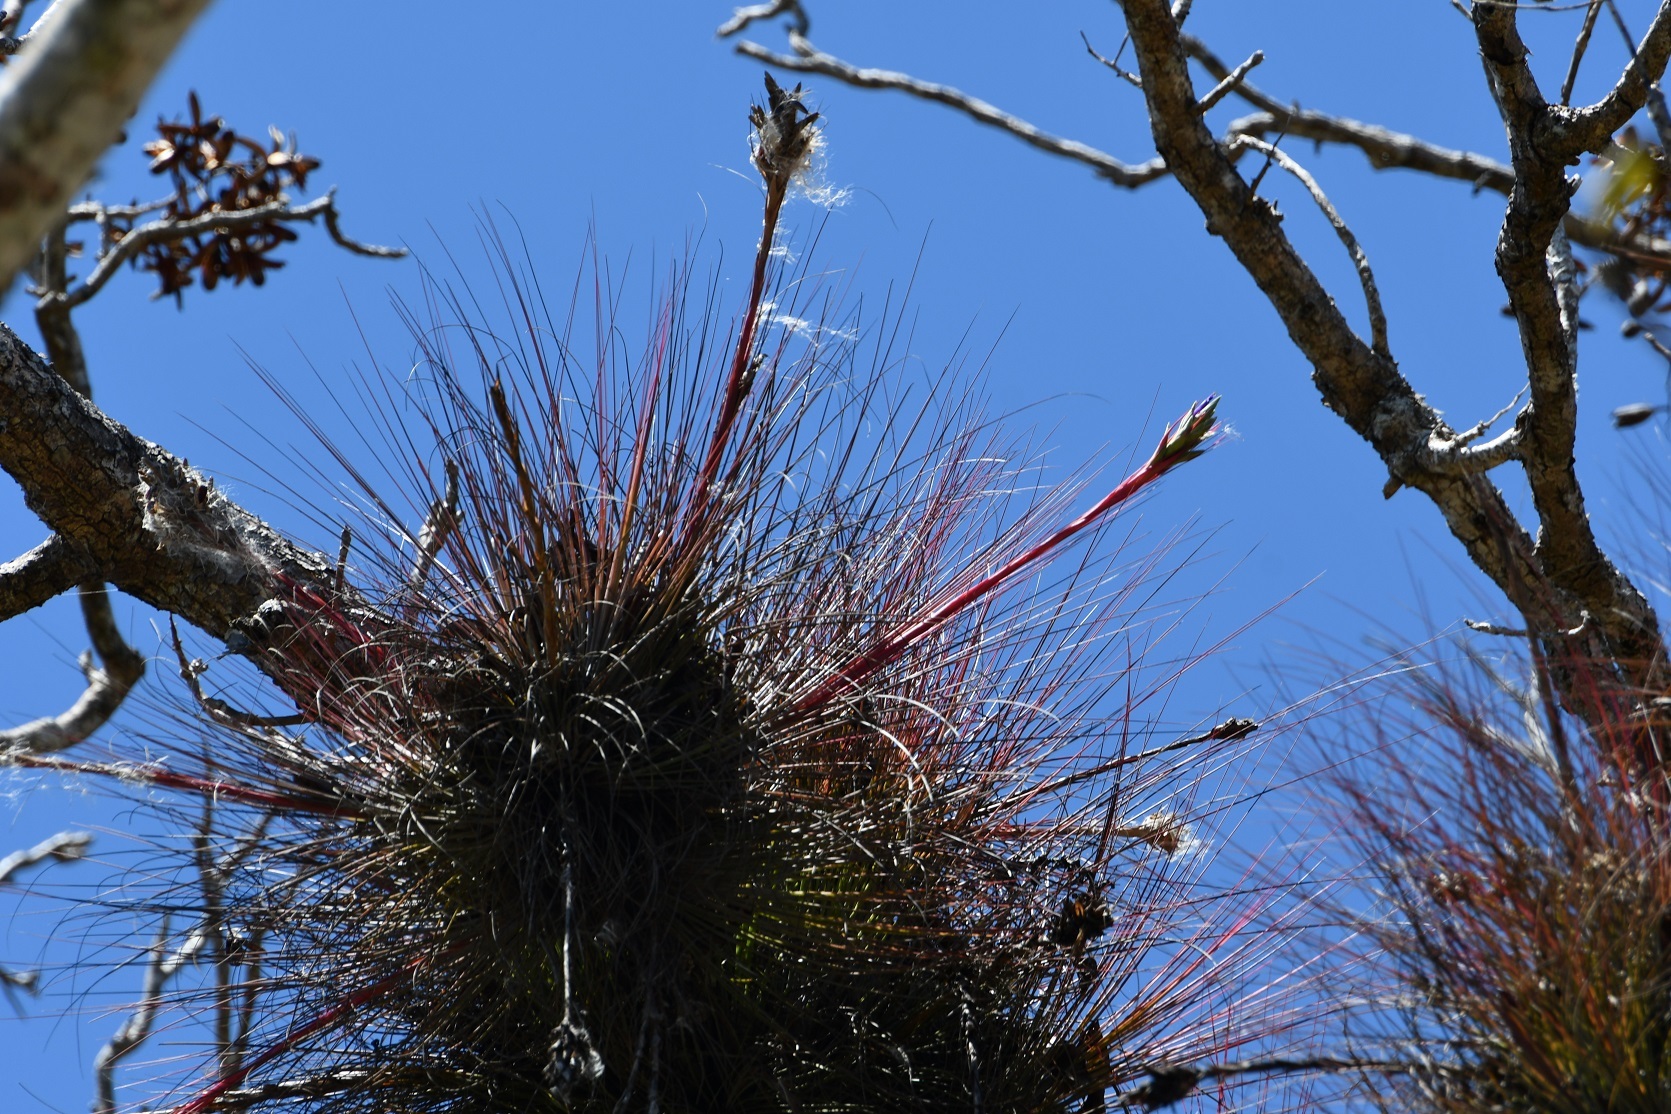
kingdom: Plantae
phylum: Tracheophyta
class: Liliopsida
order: Poales
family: Bromeliaceae
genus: Tillandsia
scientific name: Tillandsia juncea
